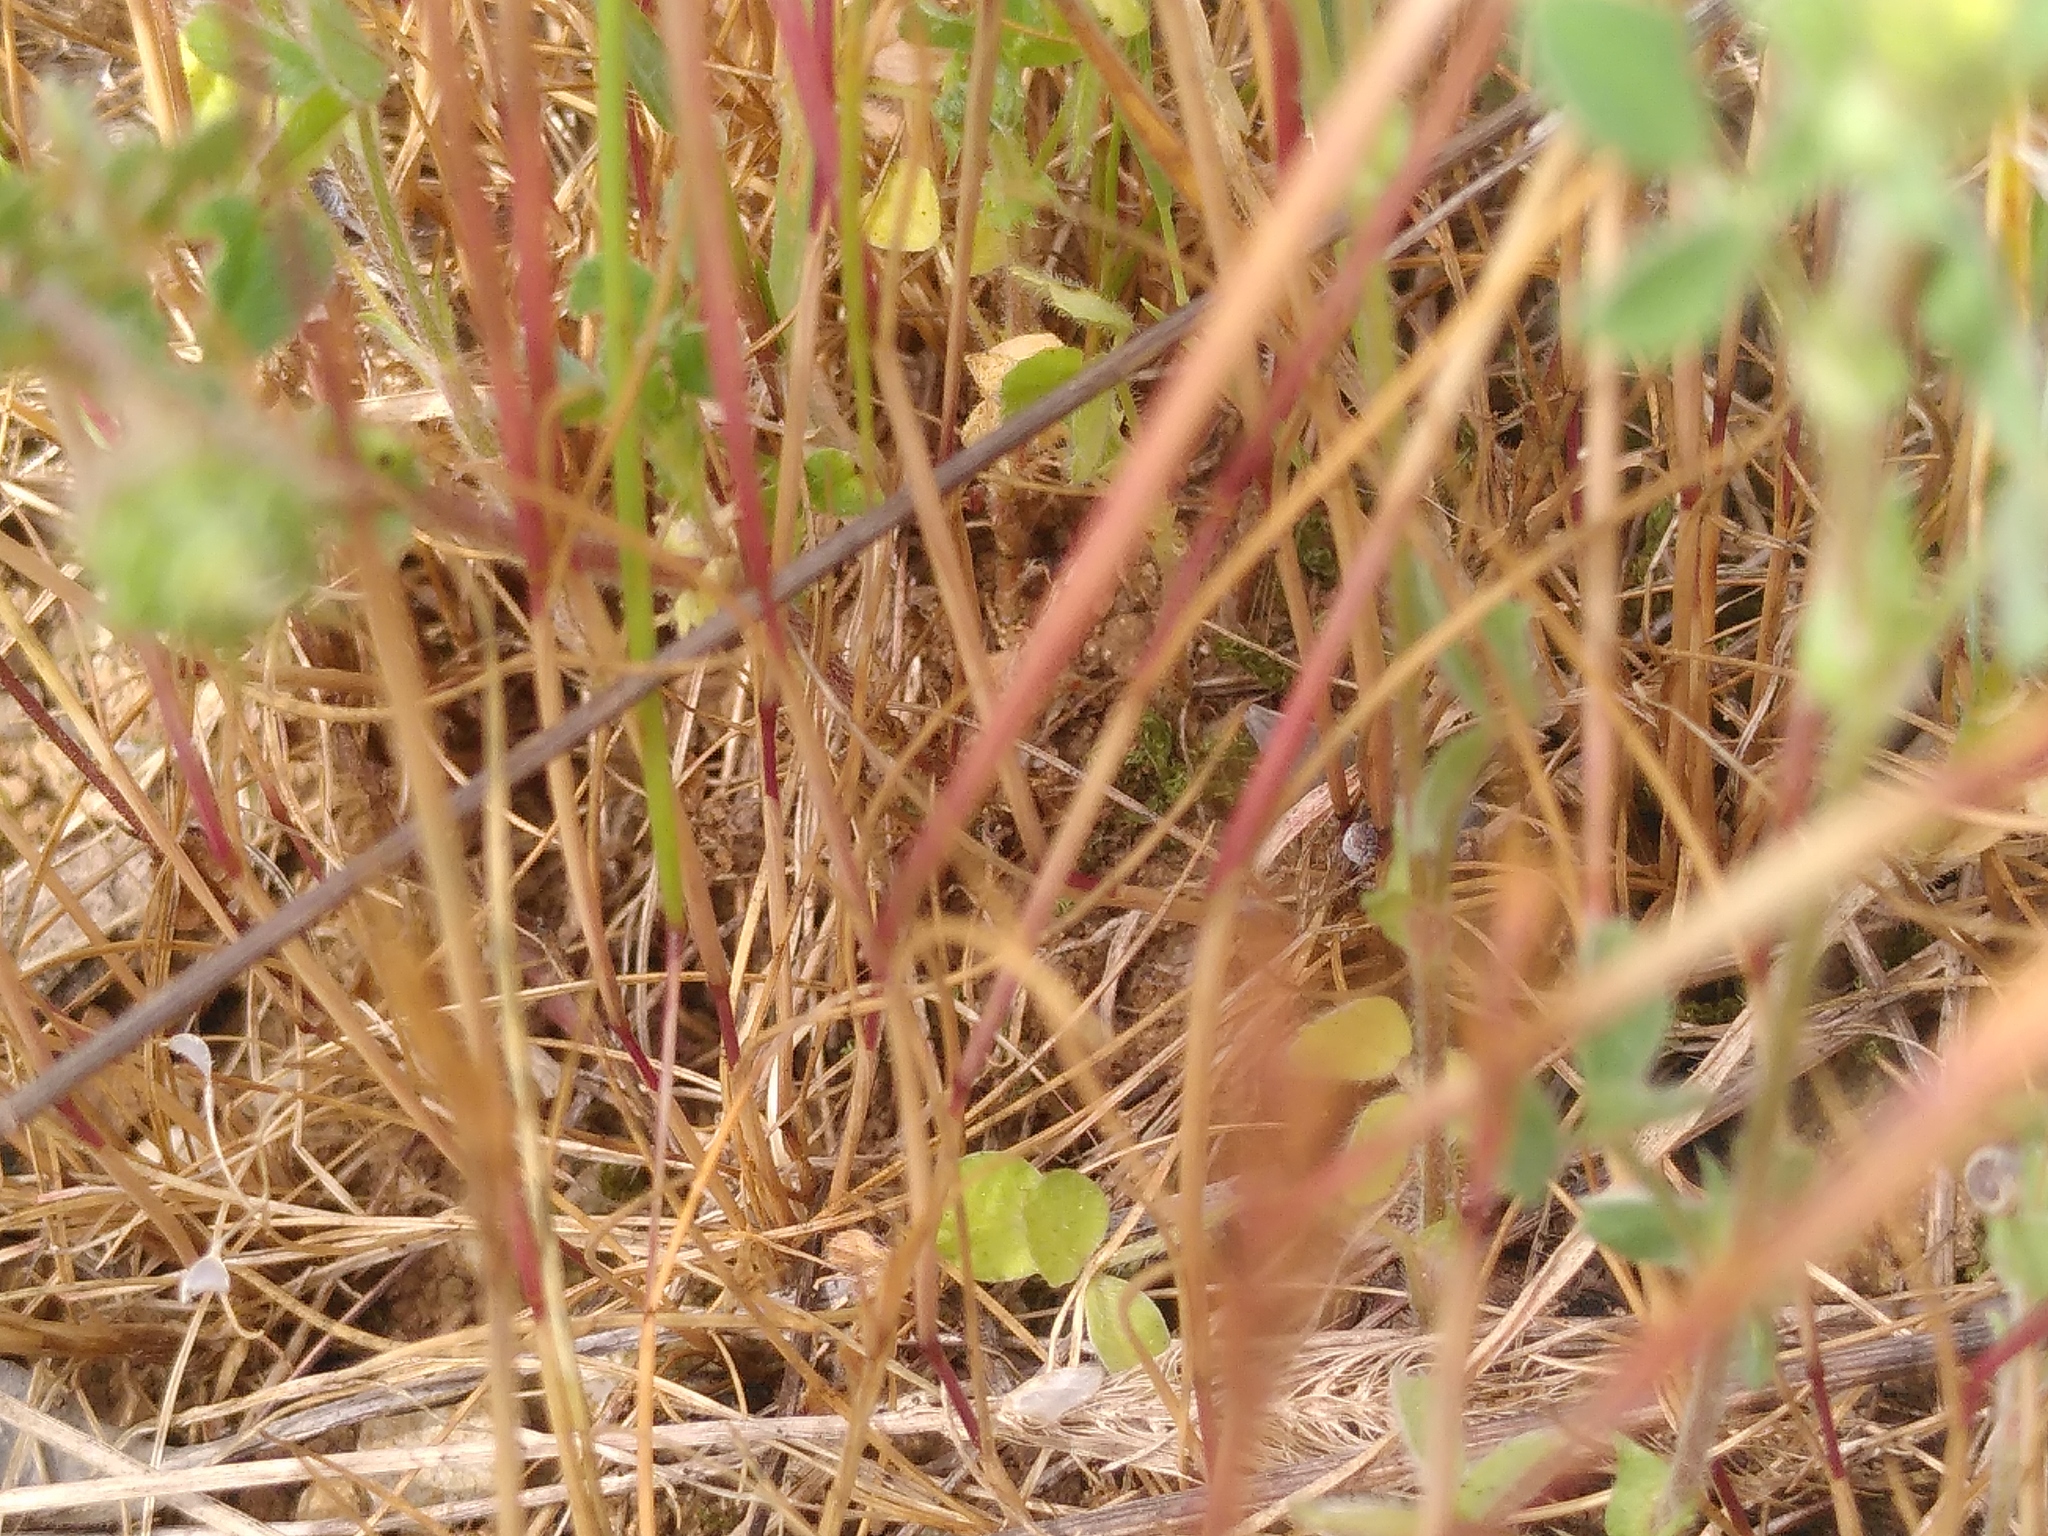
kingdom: Plantae
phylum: Tracheophyta
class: Liliopsida
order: Poales
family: Poaceae
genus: Festuca
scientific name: Festuca myuros
